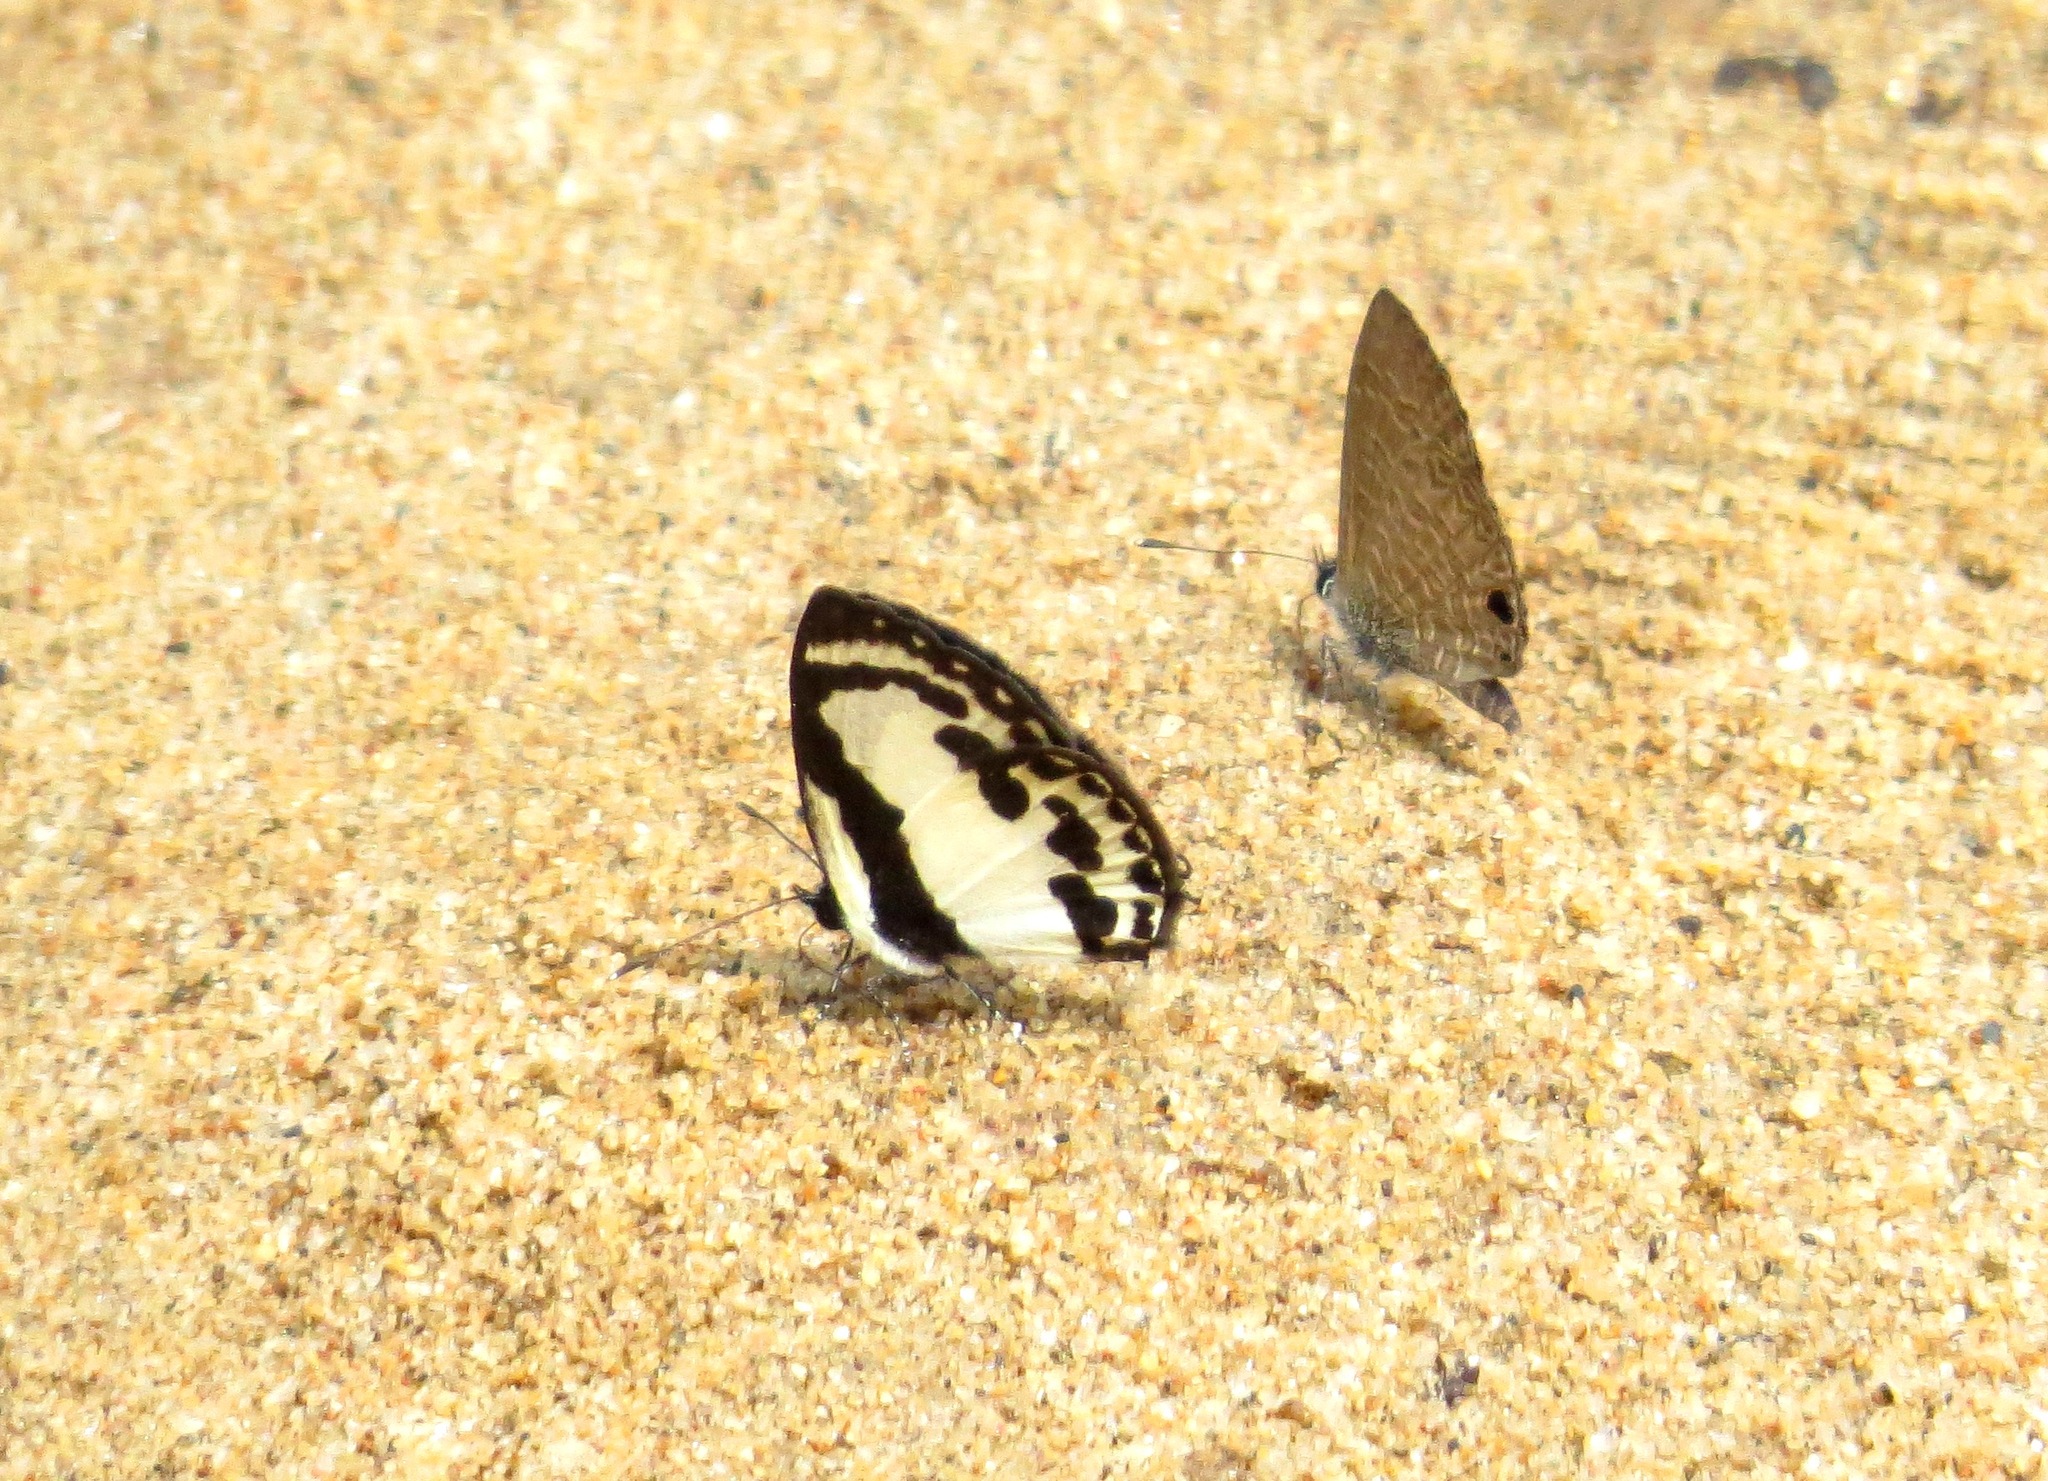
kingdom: Animalia
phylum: Arthropoda
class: Insecta
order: Lepidoptera
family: Lycaenidae
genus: Caleta
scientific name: Caleta roxus
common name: Straight pierrot
